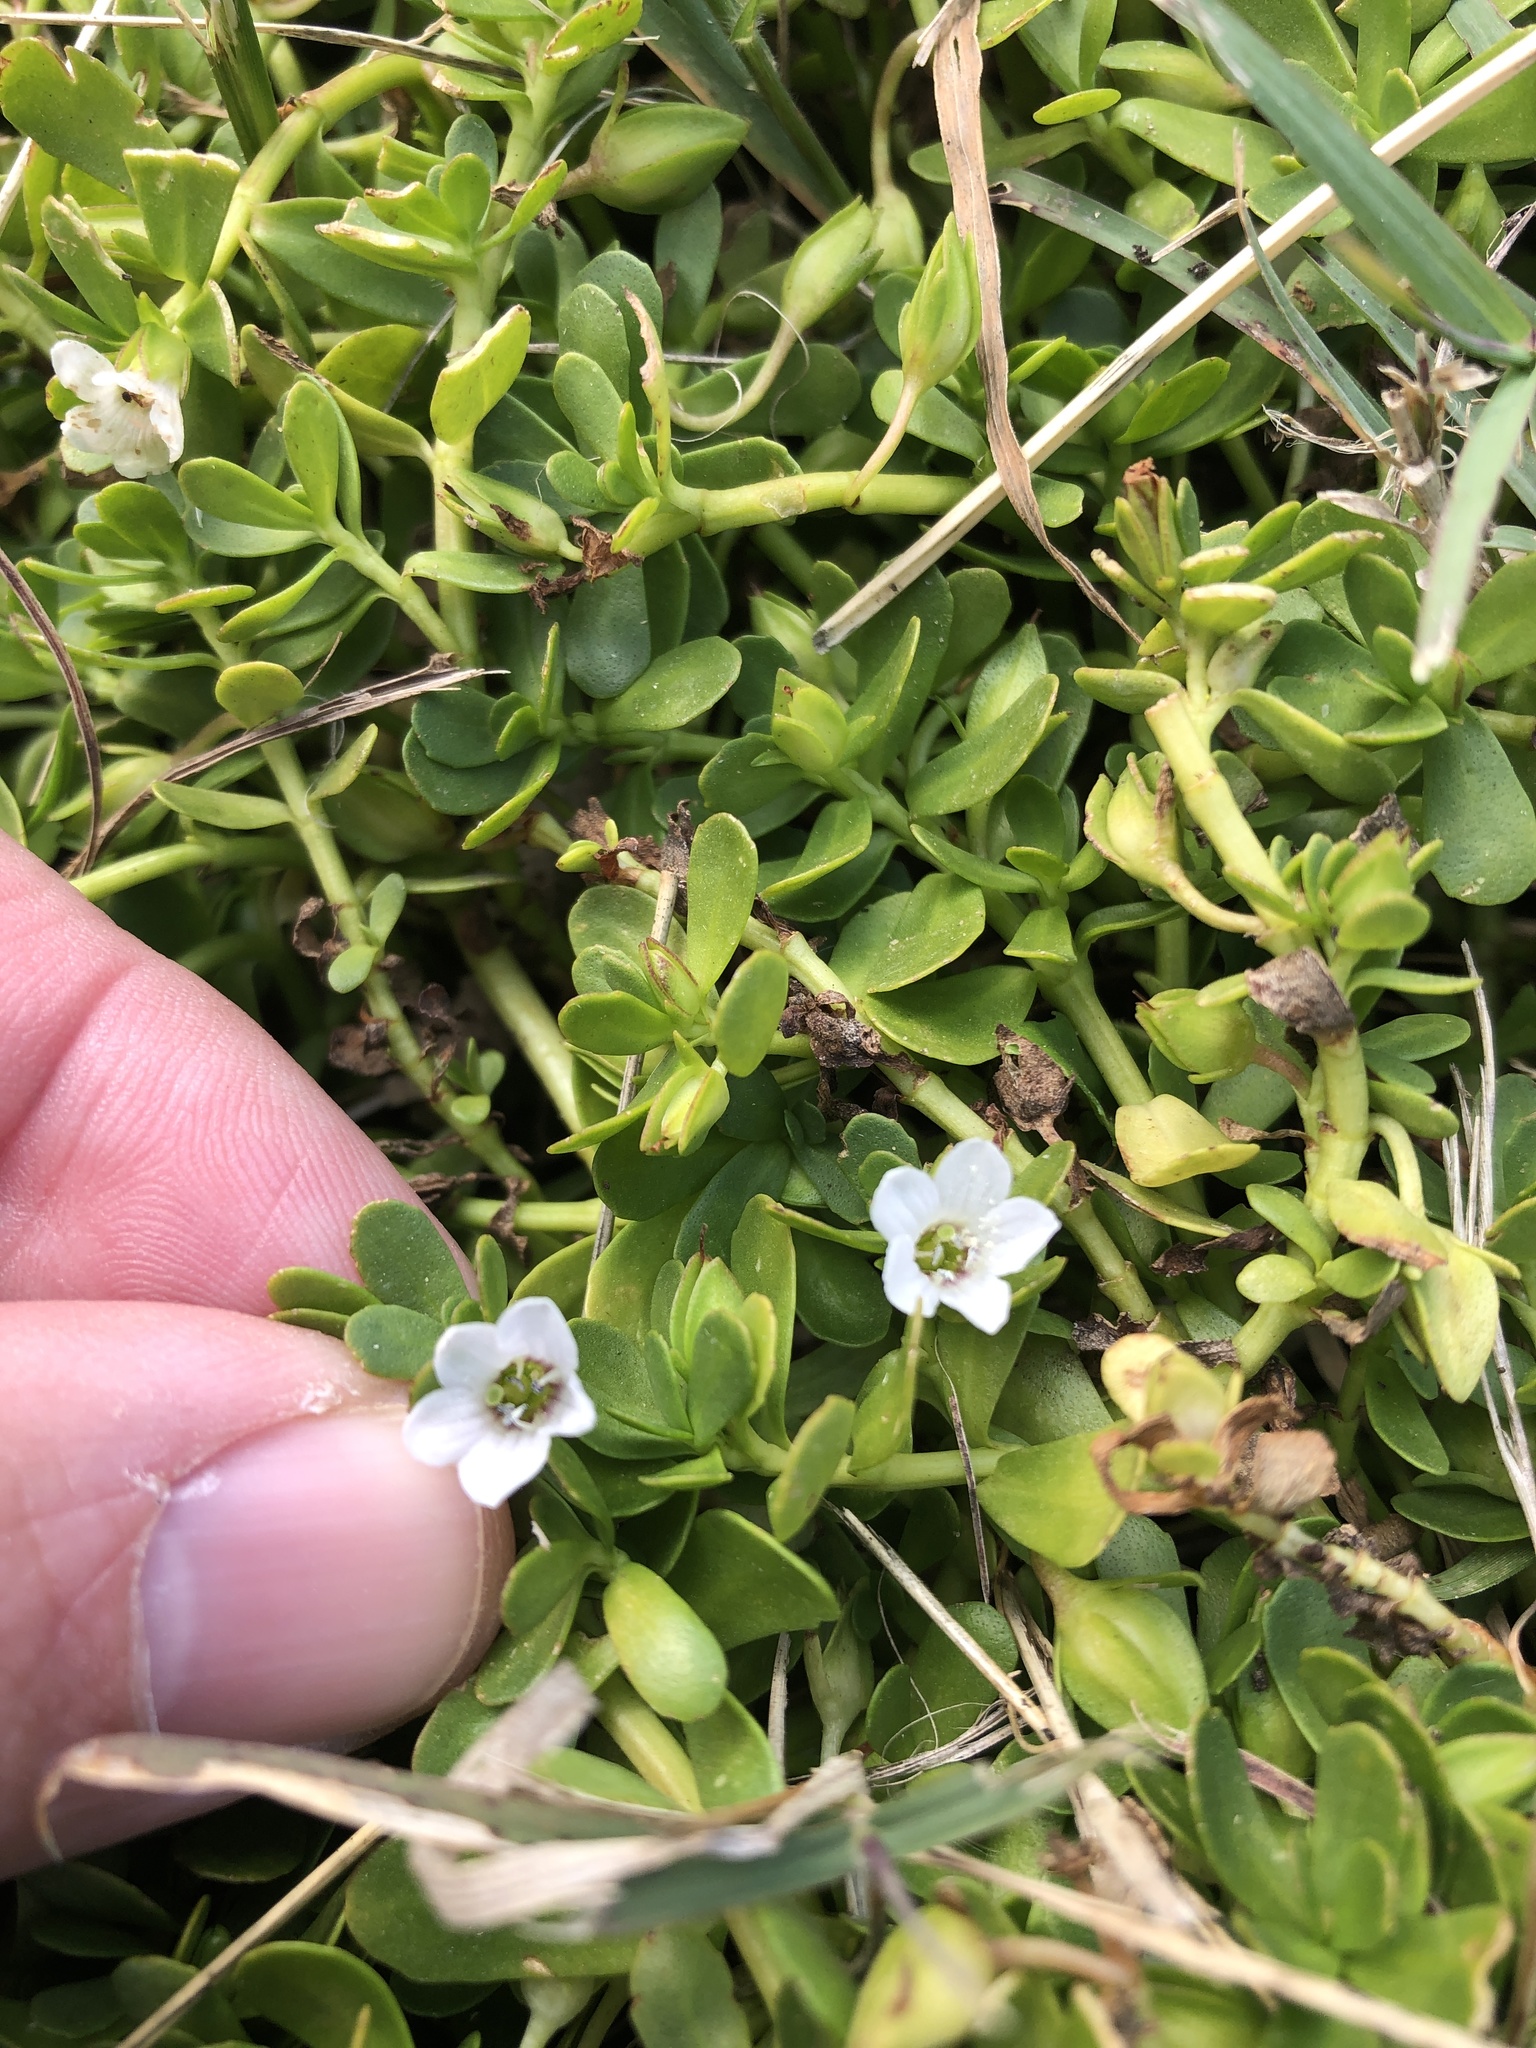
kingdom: Plantae
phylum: Tracheophyta
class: Magnoliopsida
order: Lamiales
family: Plantaginaceae
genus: Bacopa
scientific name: Bacopa monnieri
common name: Indian-pennywort
